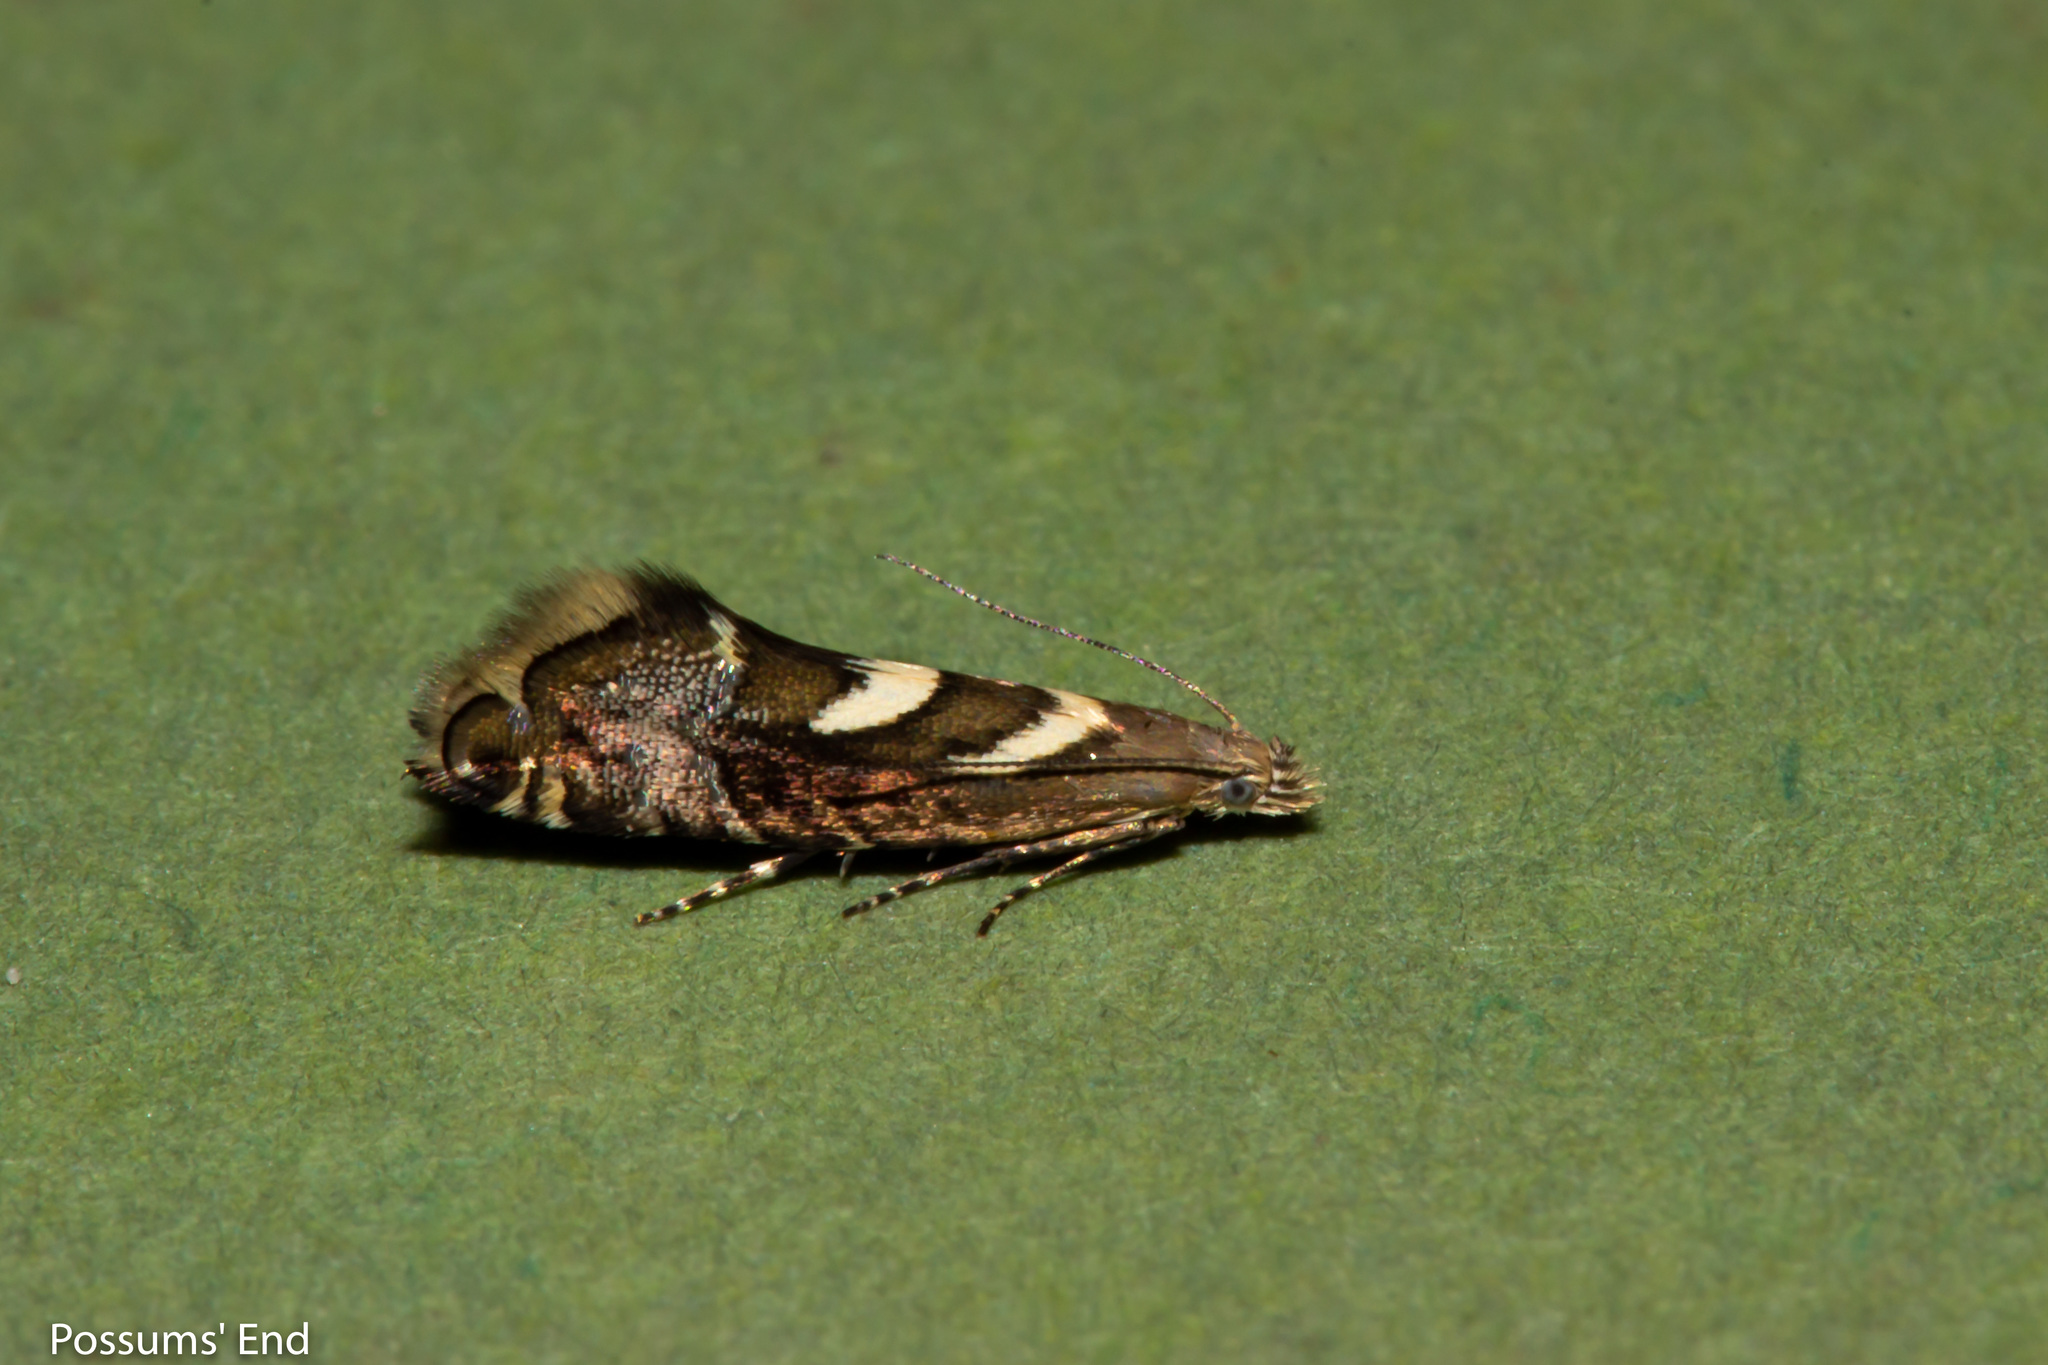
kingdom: Animalia
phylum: Arthropoda
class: Insecta
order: Lepidoptera
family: Glyphipterigidae
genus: Glyphipterix
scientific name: Glyphipterix asteronota
